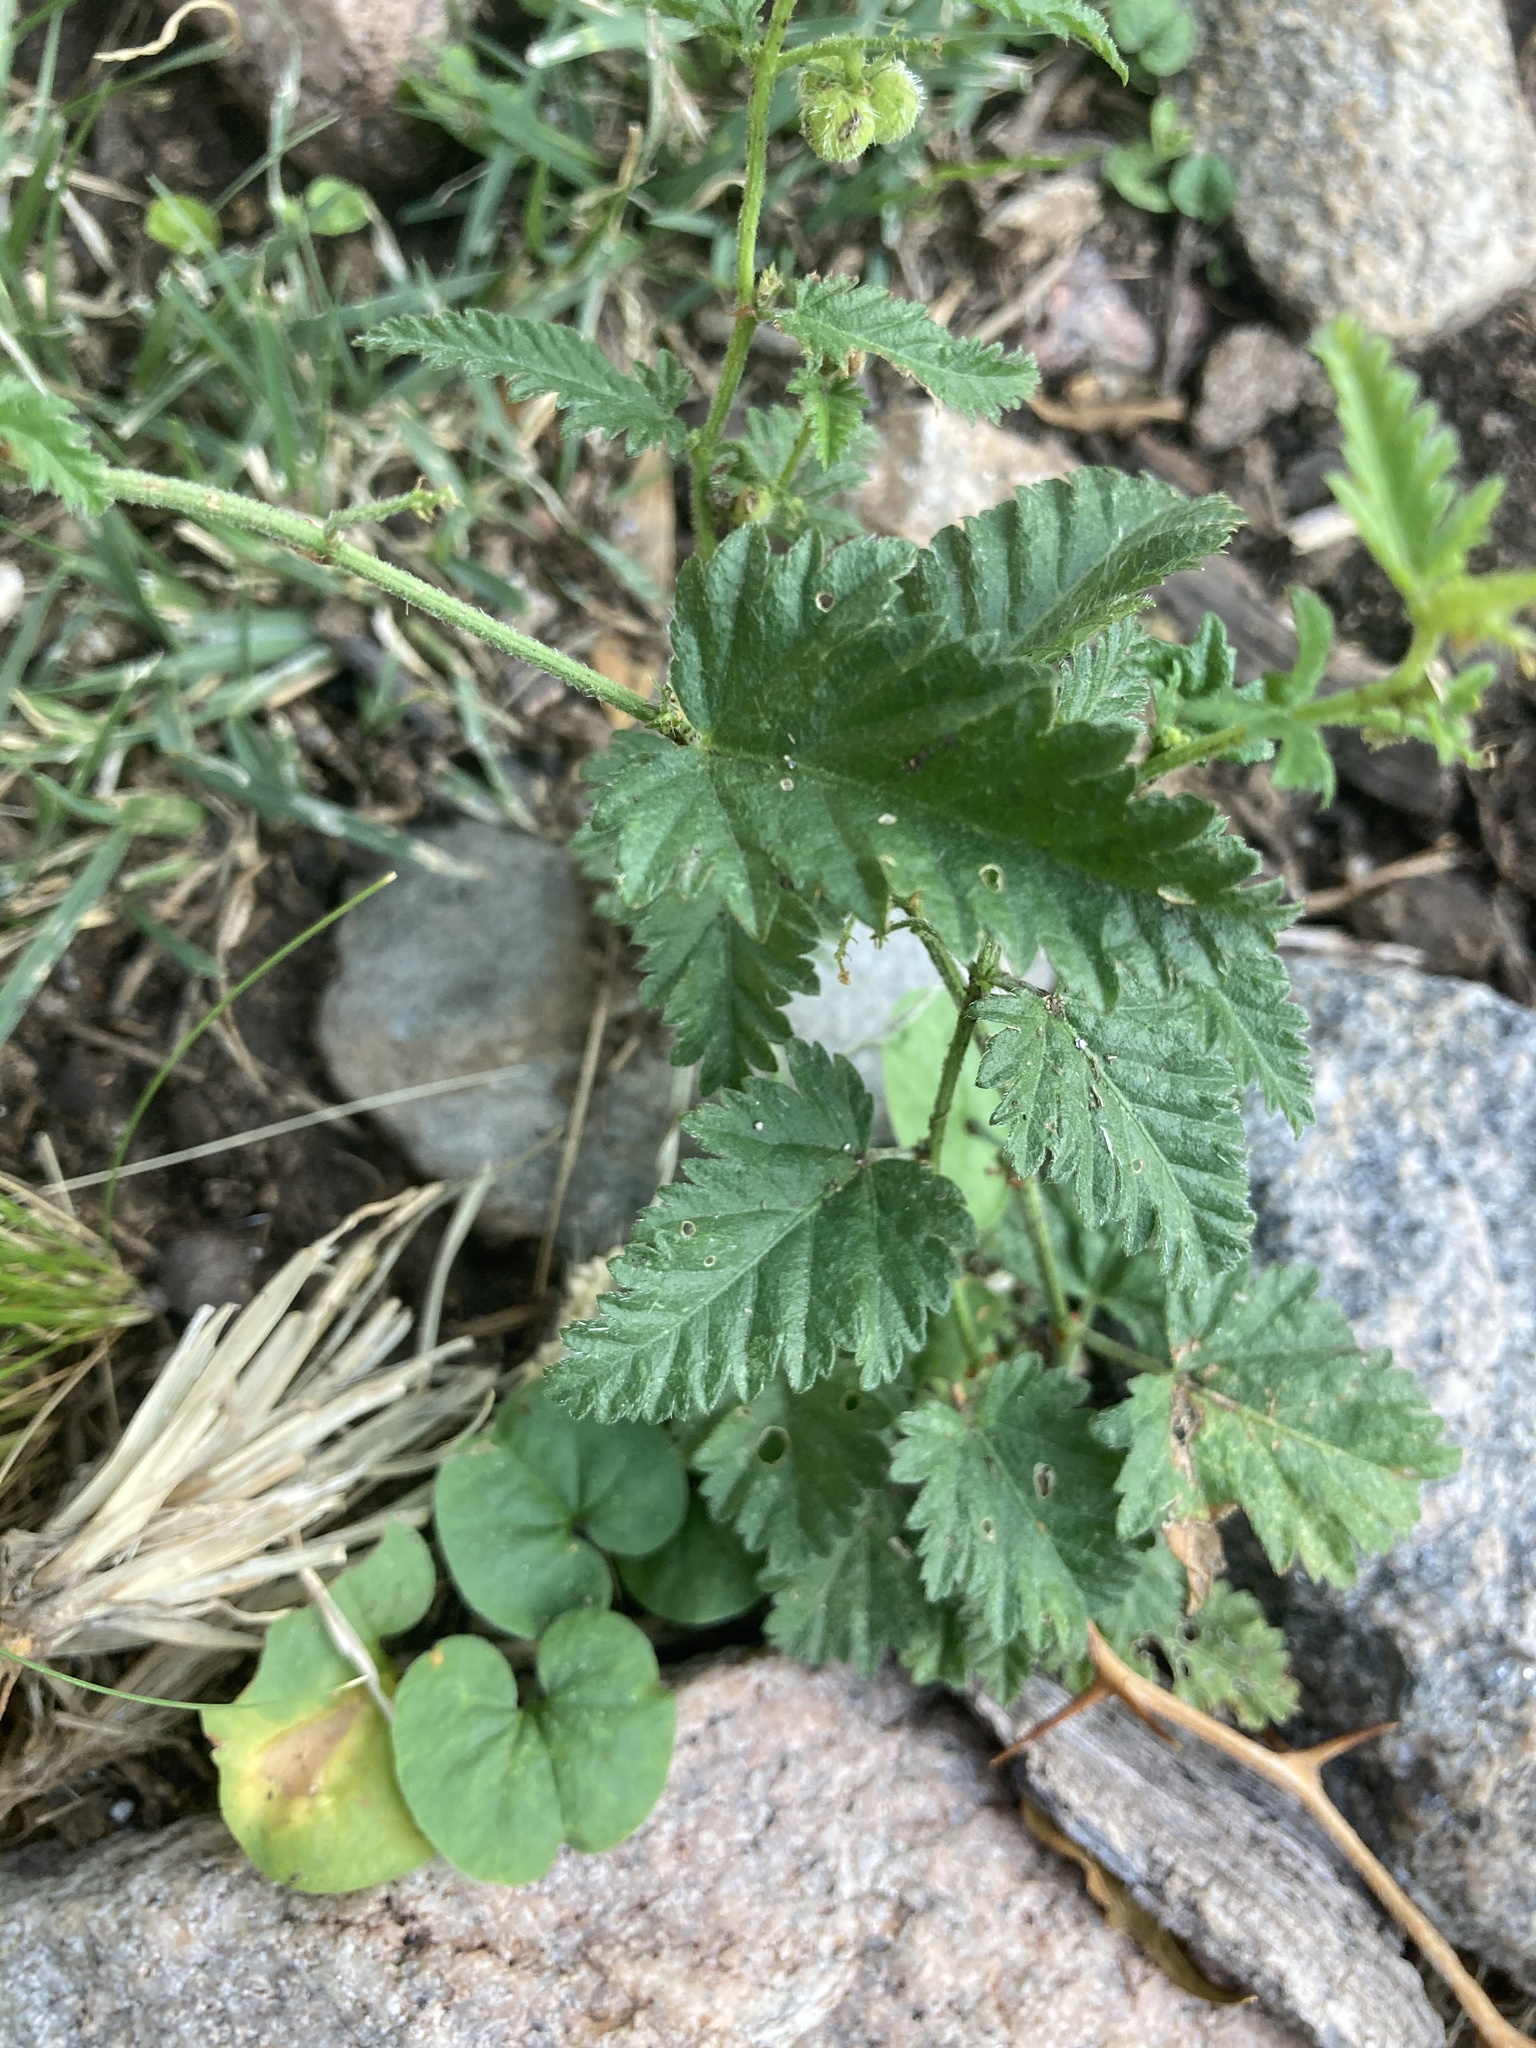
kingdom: Plantae
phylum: Tracheophyta
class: Magnoliopsida
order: Malpighiales
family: Euphorbiaceae
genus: Tragia
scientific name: Tragia geraniifolia
